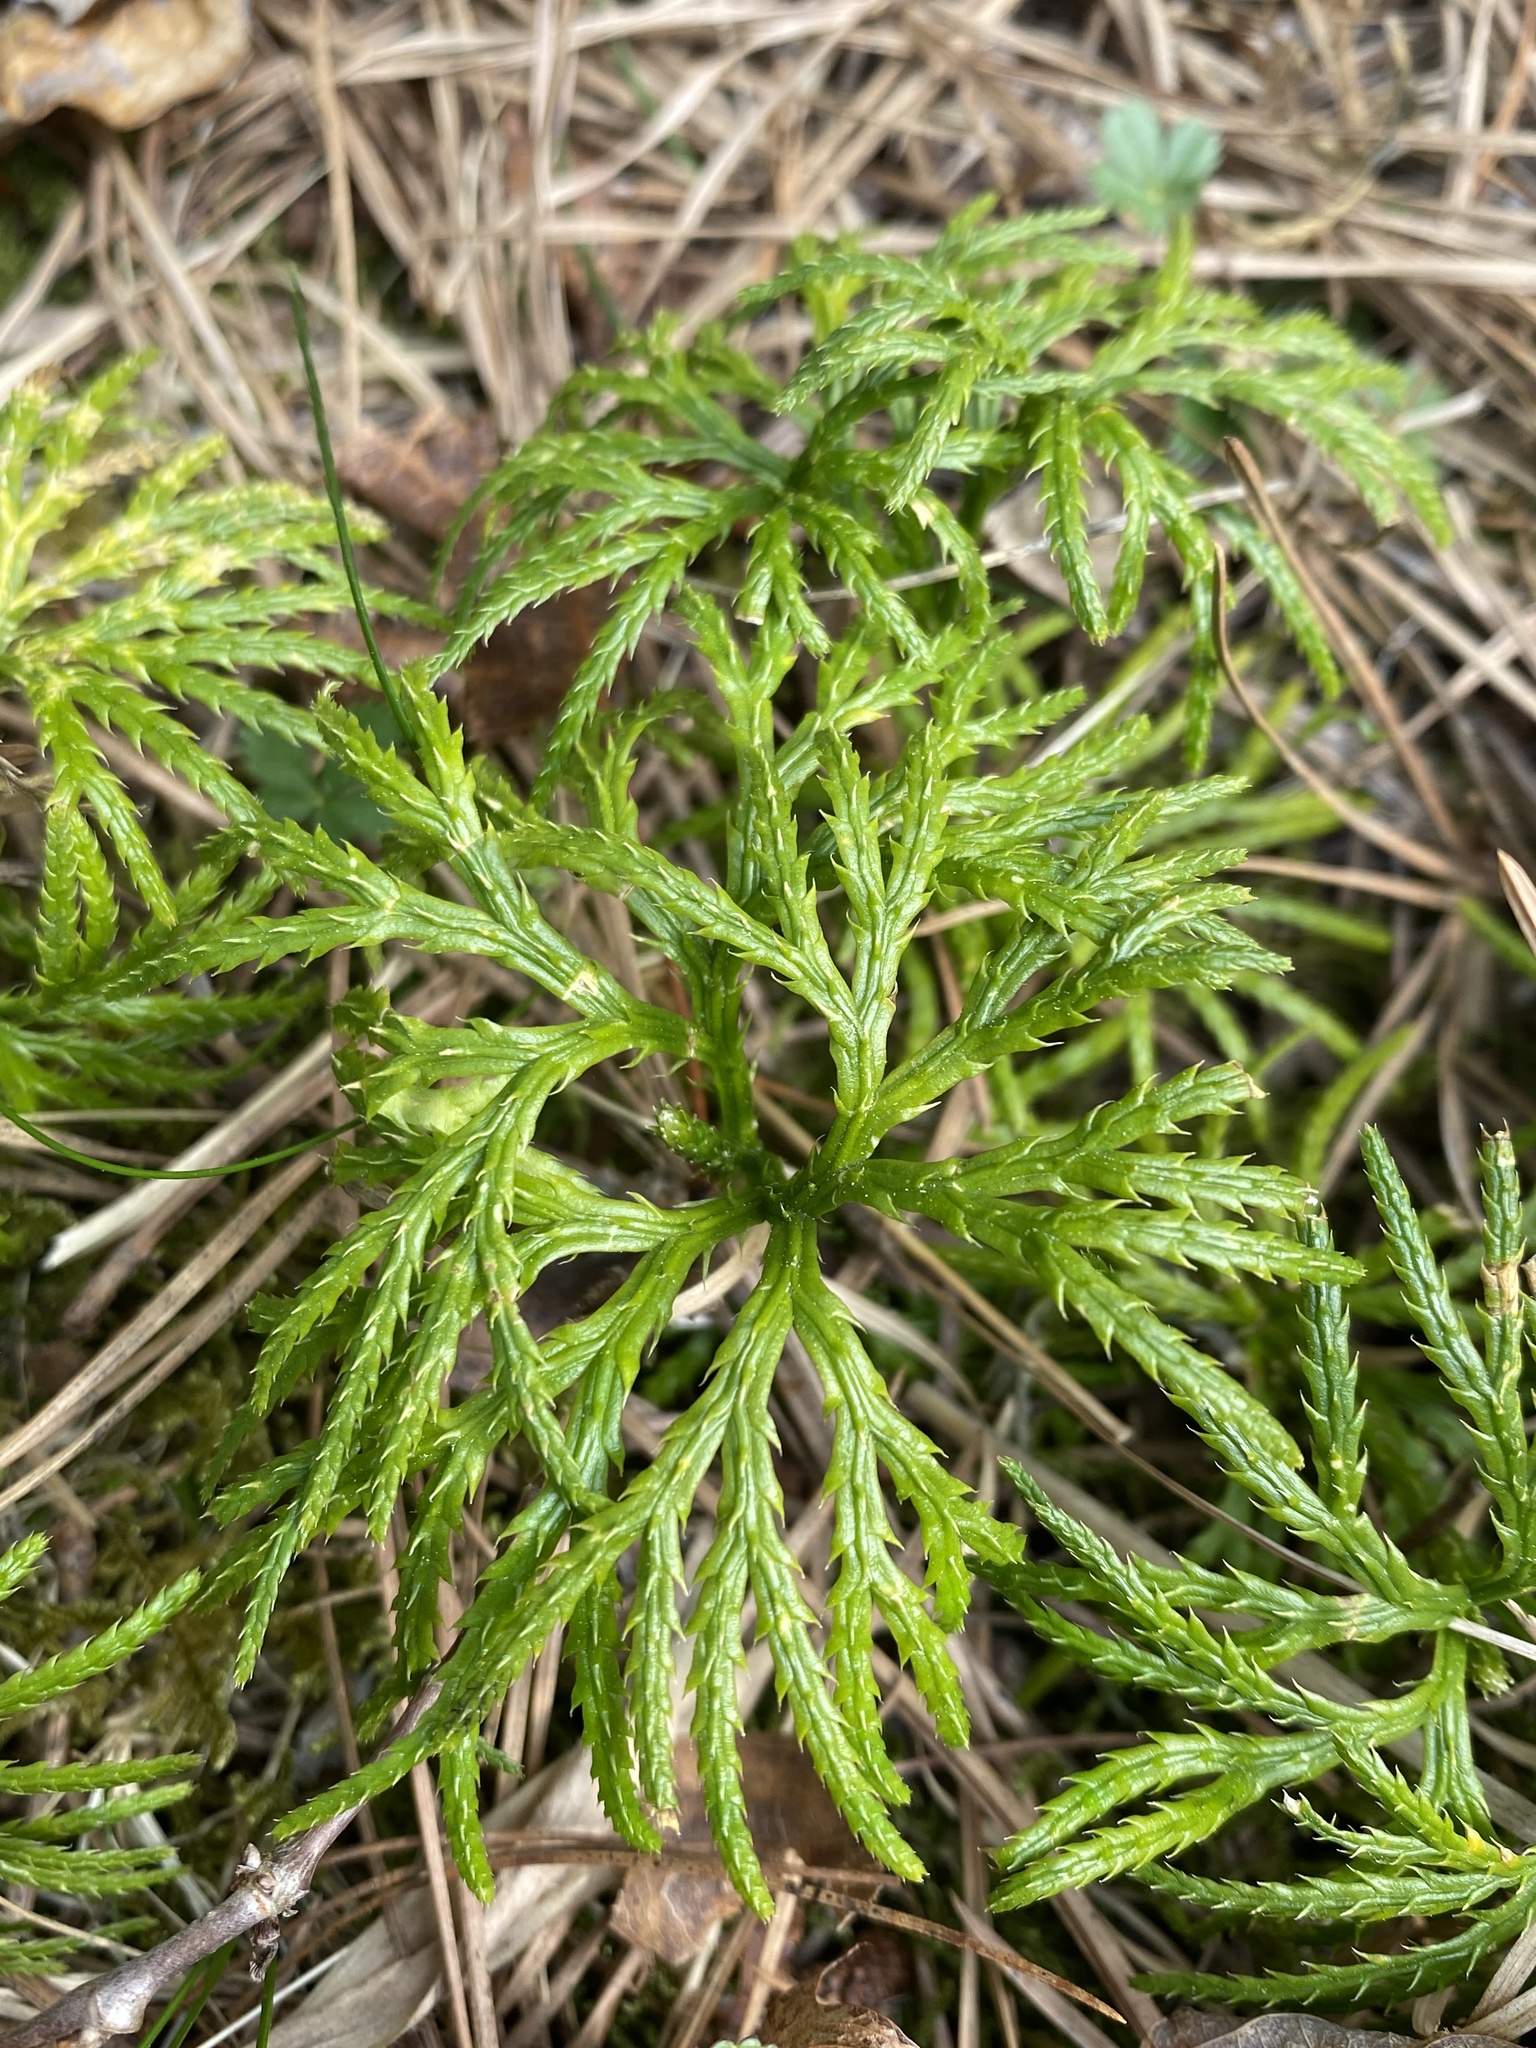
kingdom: Plantae
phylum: Tracheophyta
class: Lycopodiopsida
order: Lycopodiales
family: Lycopodiaceae
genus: Diphasiastrum
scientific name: Diphasiastrum digitatum
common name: Southern running-pine
